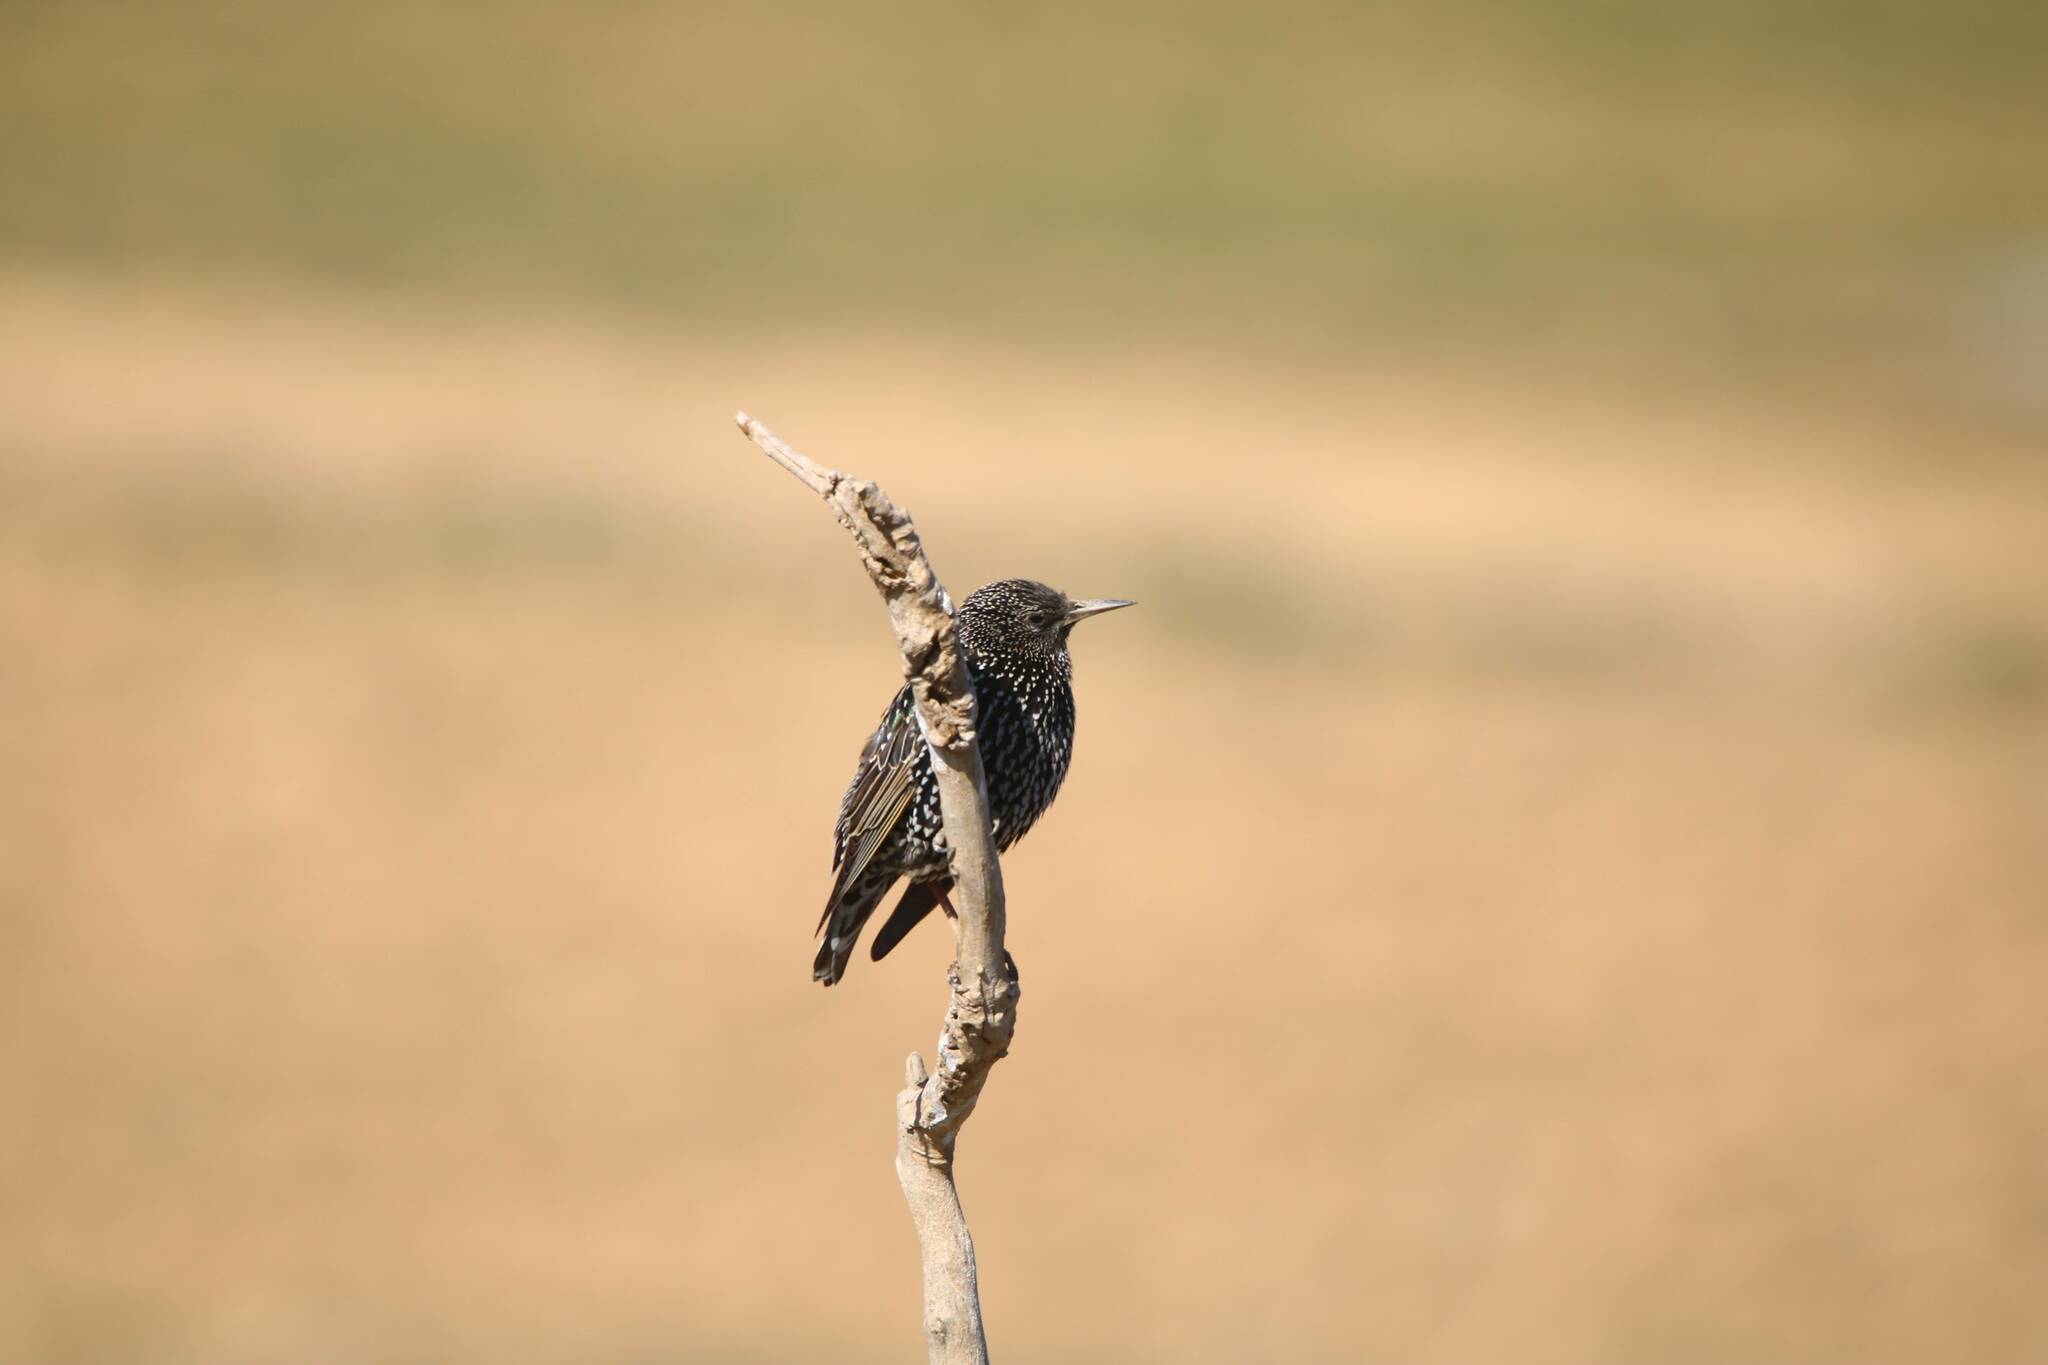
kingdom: Animalia
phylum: Chordata
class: Aves
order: Passeriformes
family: Sturnidae
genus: Sturnus
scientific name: Sturnus vulgaris
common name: Common starling
